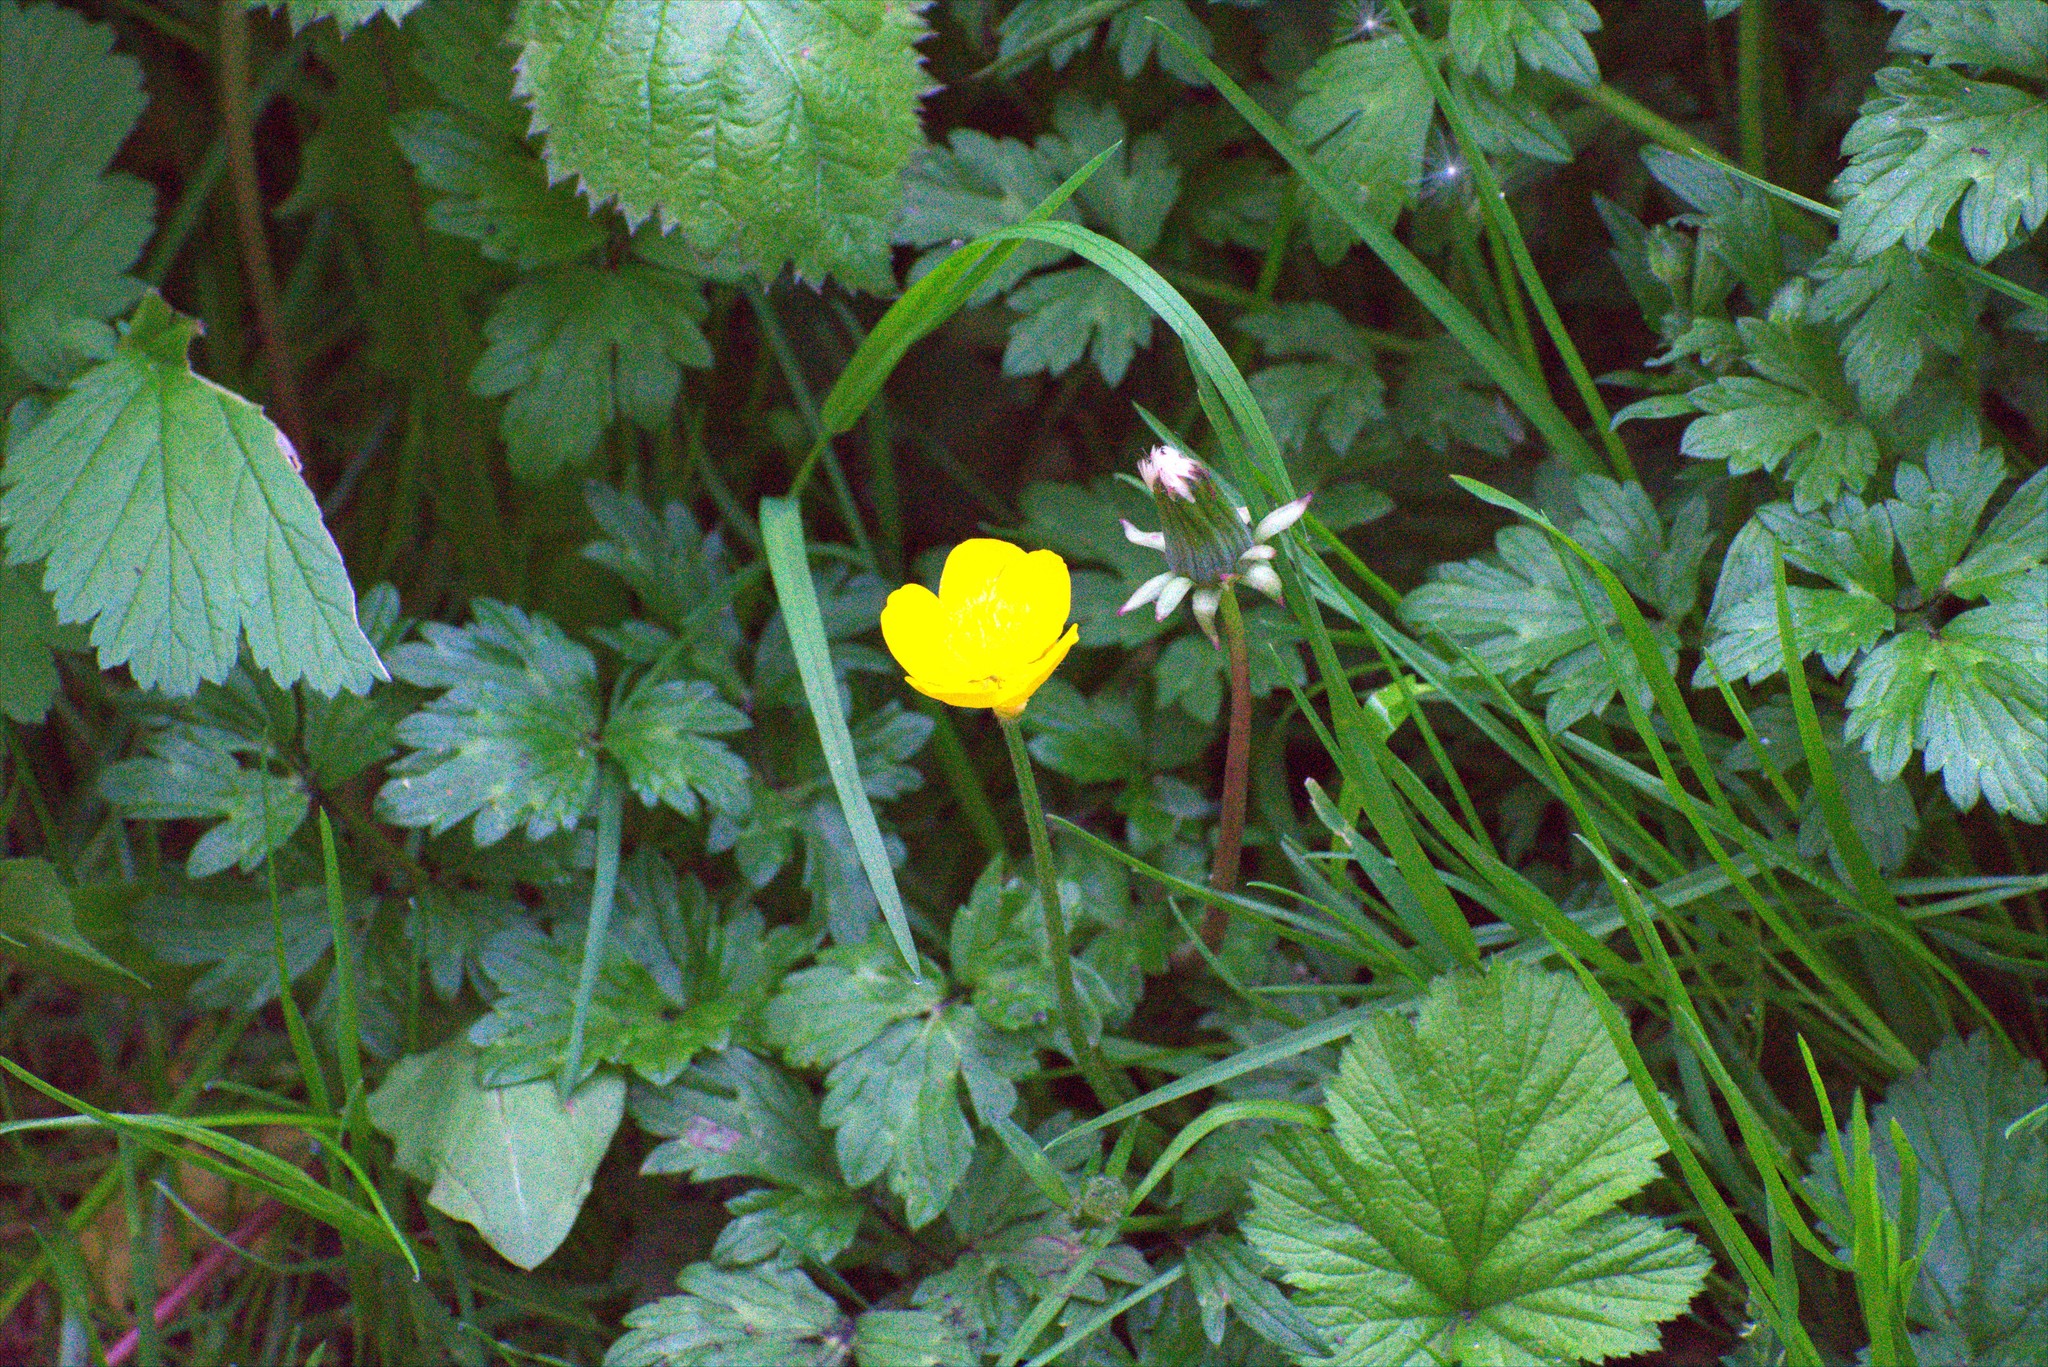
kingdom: Plantae
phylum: Tracheophyta
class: Magnoliopsida
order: Ranunculales
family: Ranunculaceae
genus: Ranunculus
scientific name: Ranunculus repens
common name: Creeping buttercup
